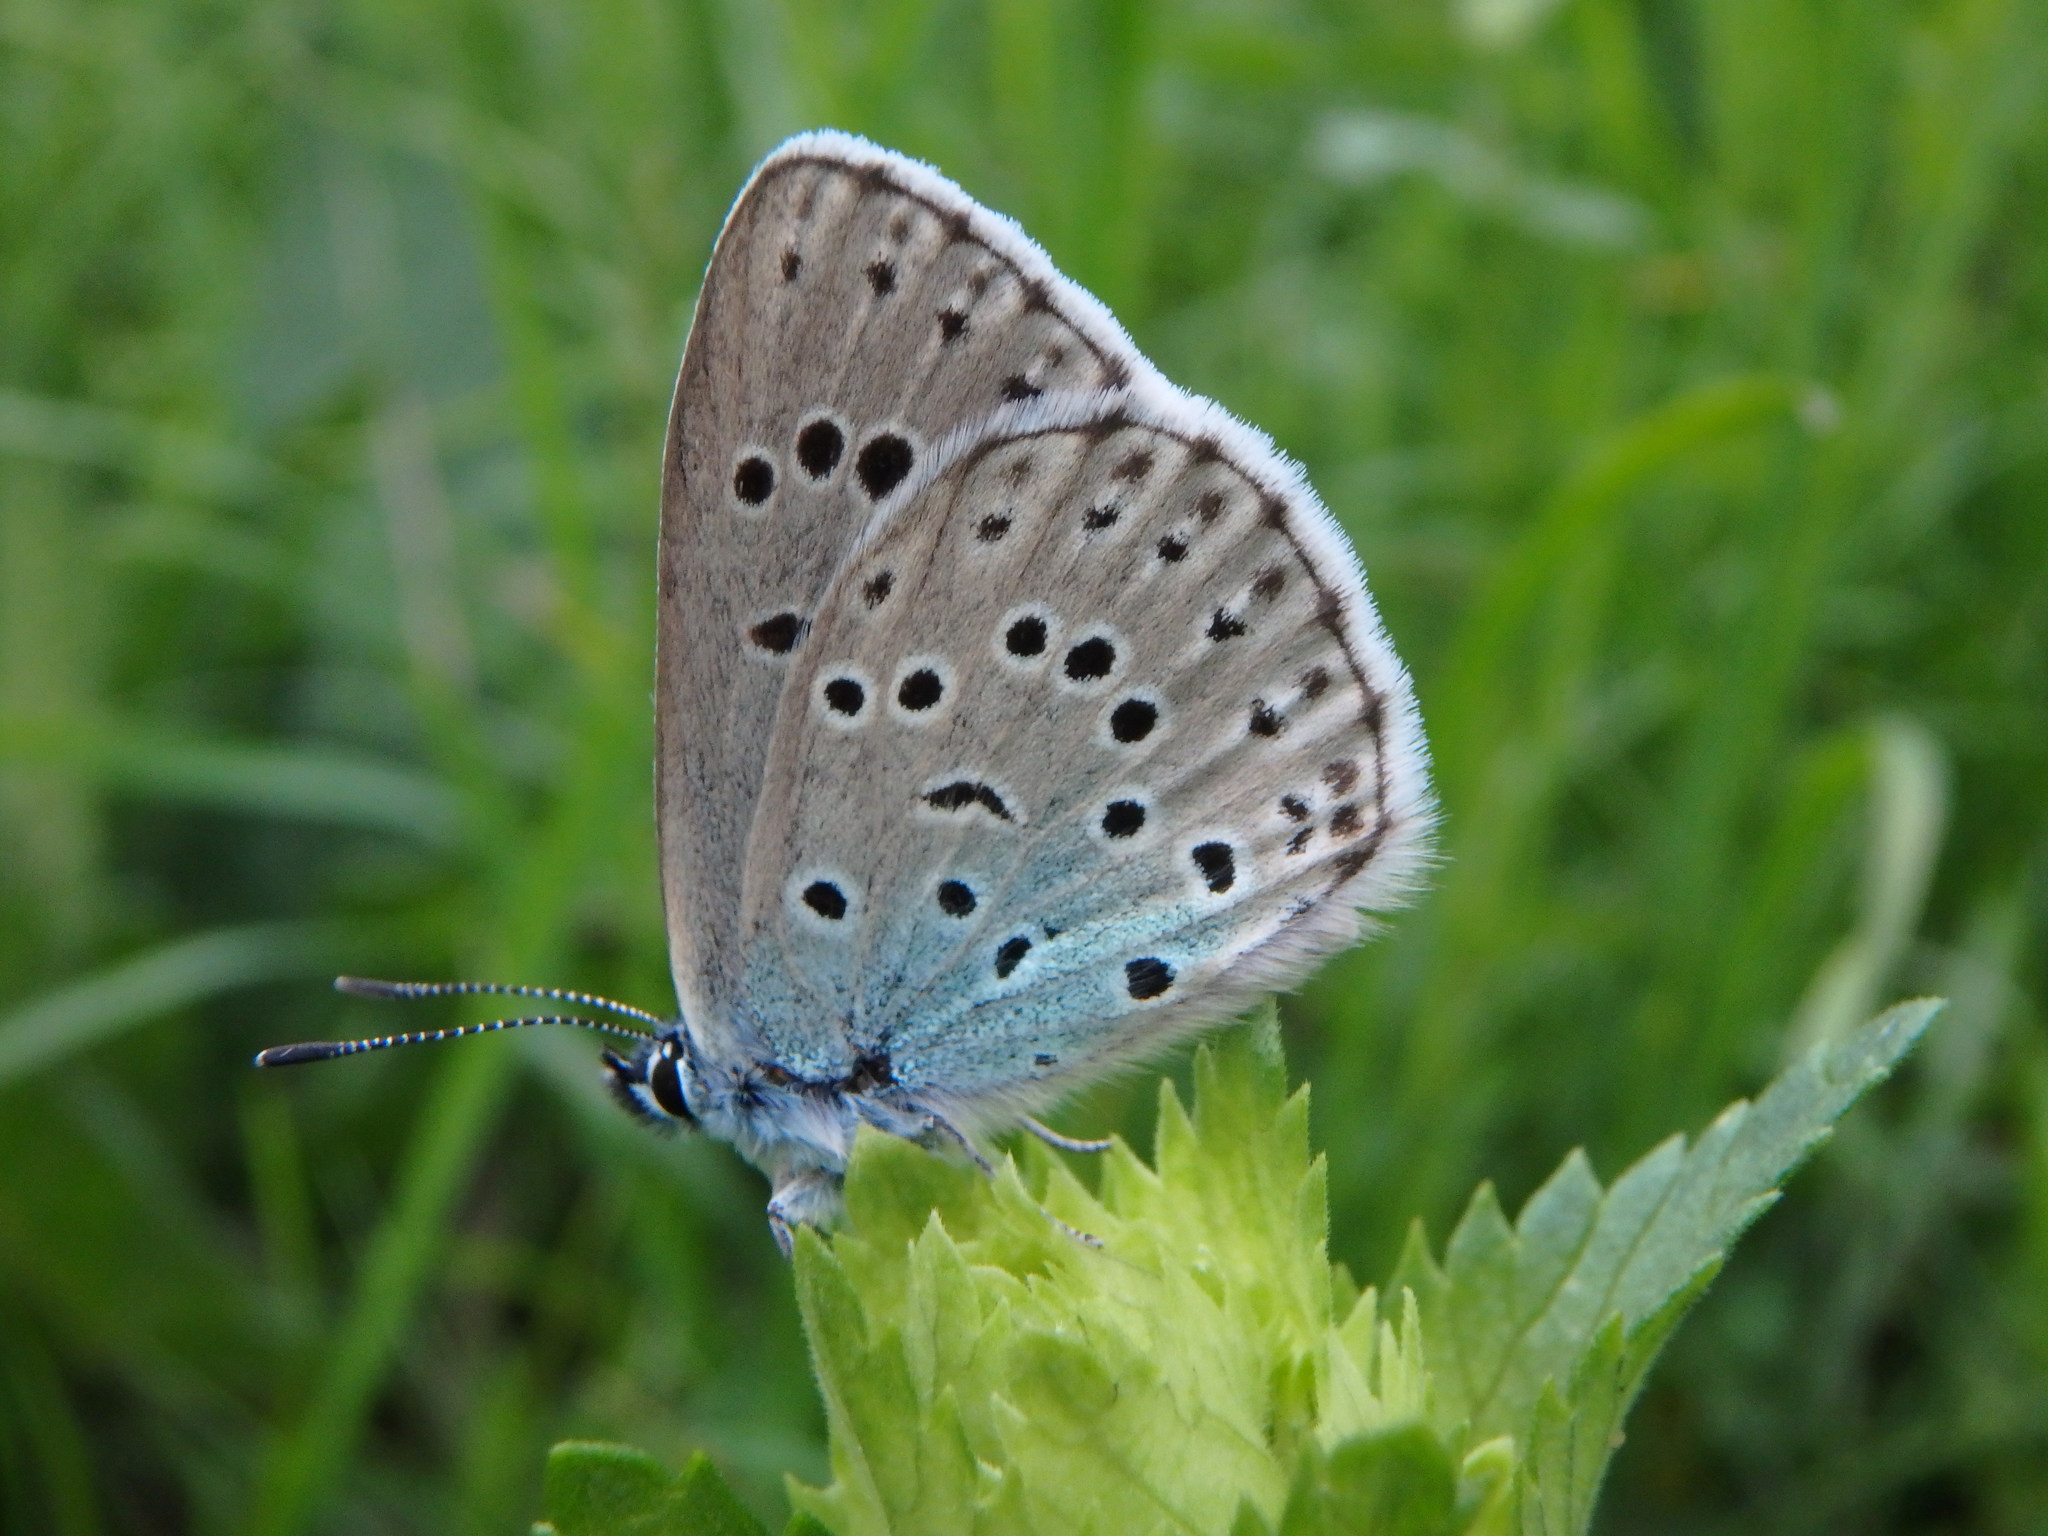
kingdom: Animalia
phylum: Arthropoda
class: Insecta
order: Lepidoptera
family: Lycaenidae
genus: Maculinea
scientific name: Maculinea arion
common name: Large blue
